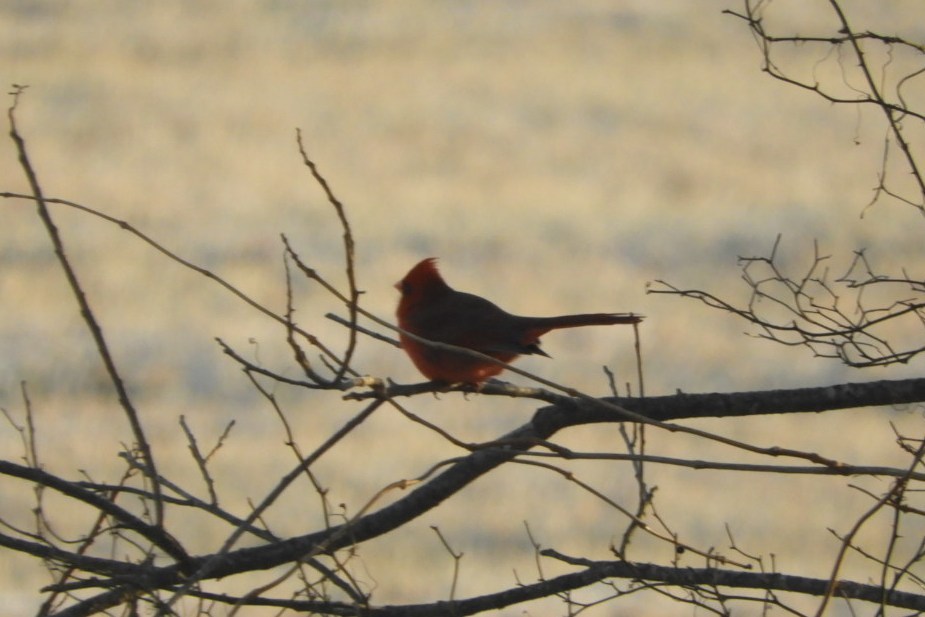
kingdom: Animalia
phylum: Chordata
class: Aves
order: Passeriformes
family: Cardinalidae
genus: Cardinalis
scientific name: Cardinalis cardinalis
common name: Northern cardinal
